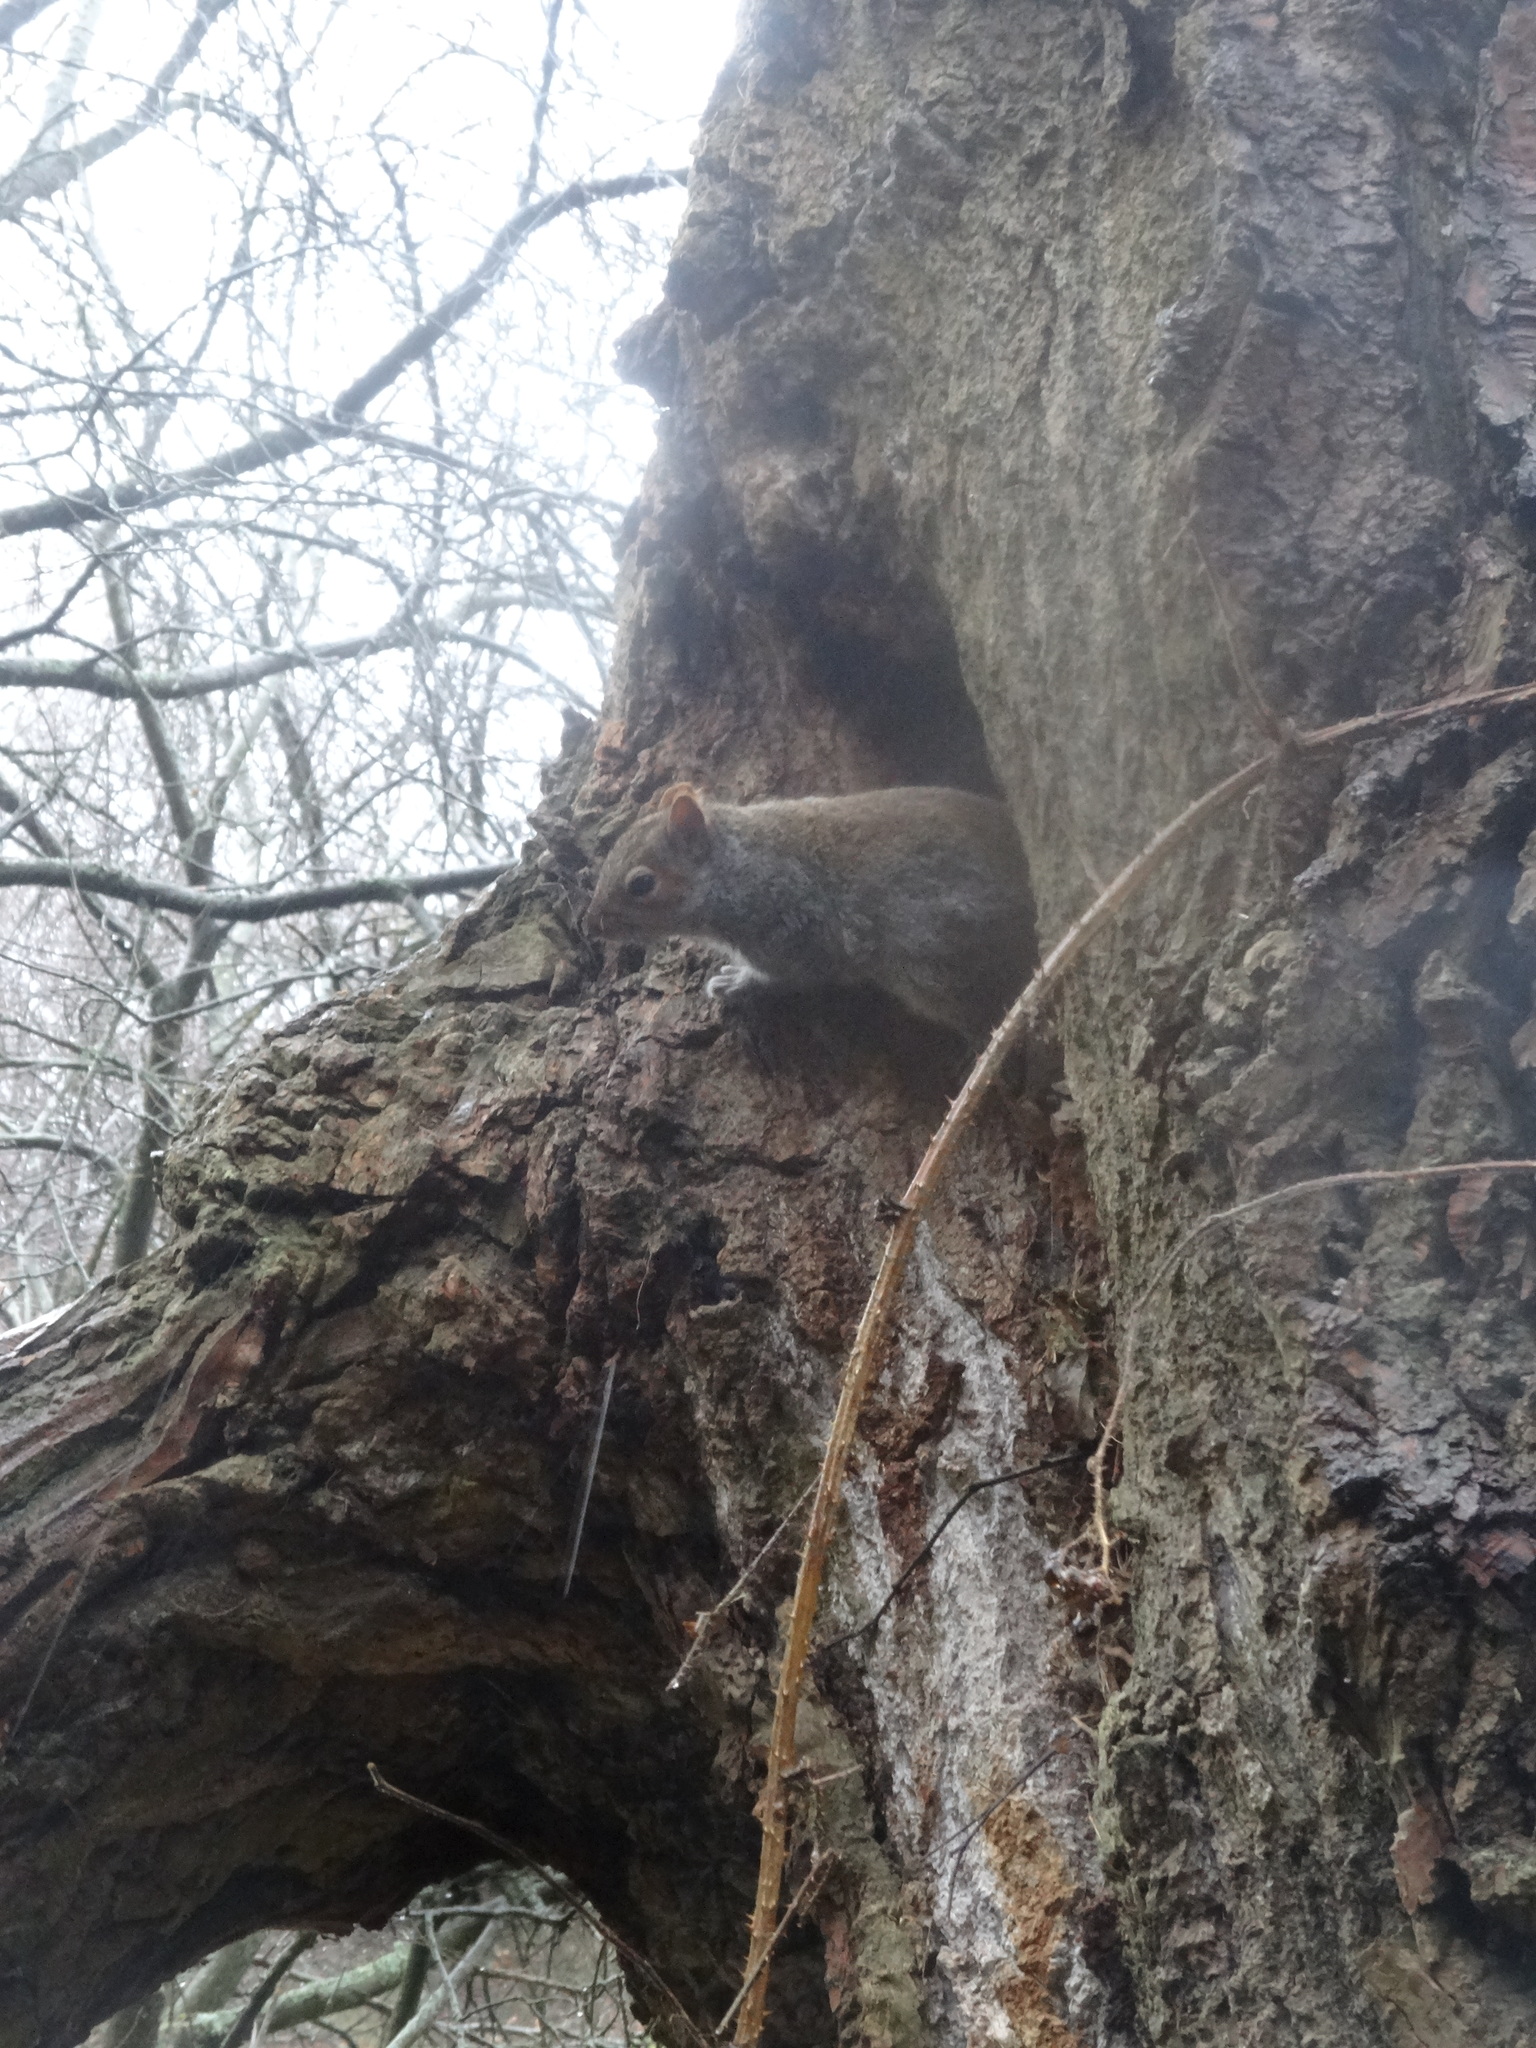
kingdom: Animalia
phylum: Chordata
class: Mammalia
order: Rodentia
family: Sciuridae
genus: Sciurus
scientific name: Sciurus carolinensis
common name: Eastern gray squirrel
